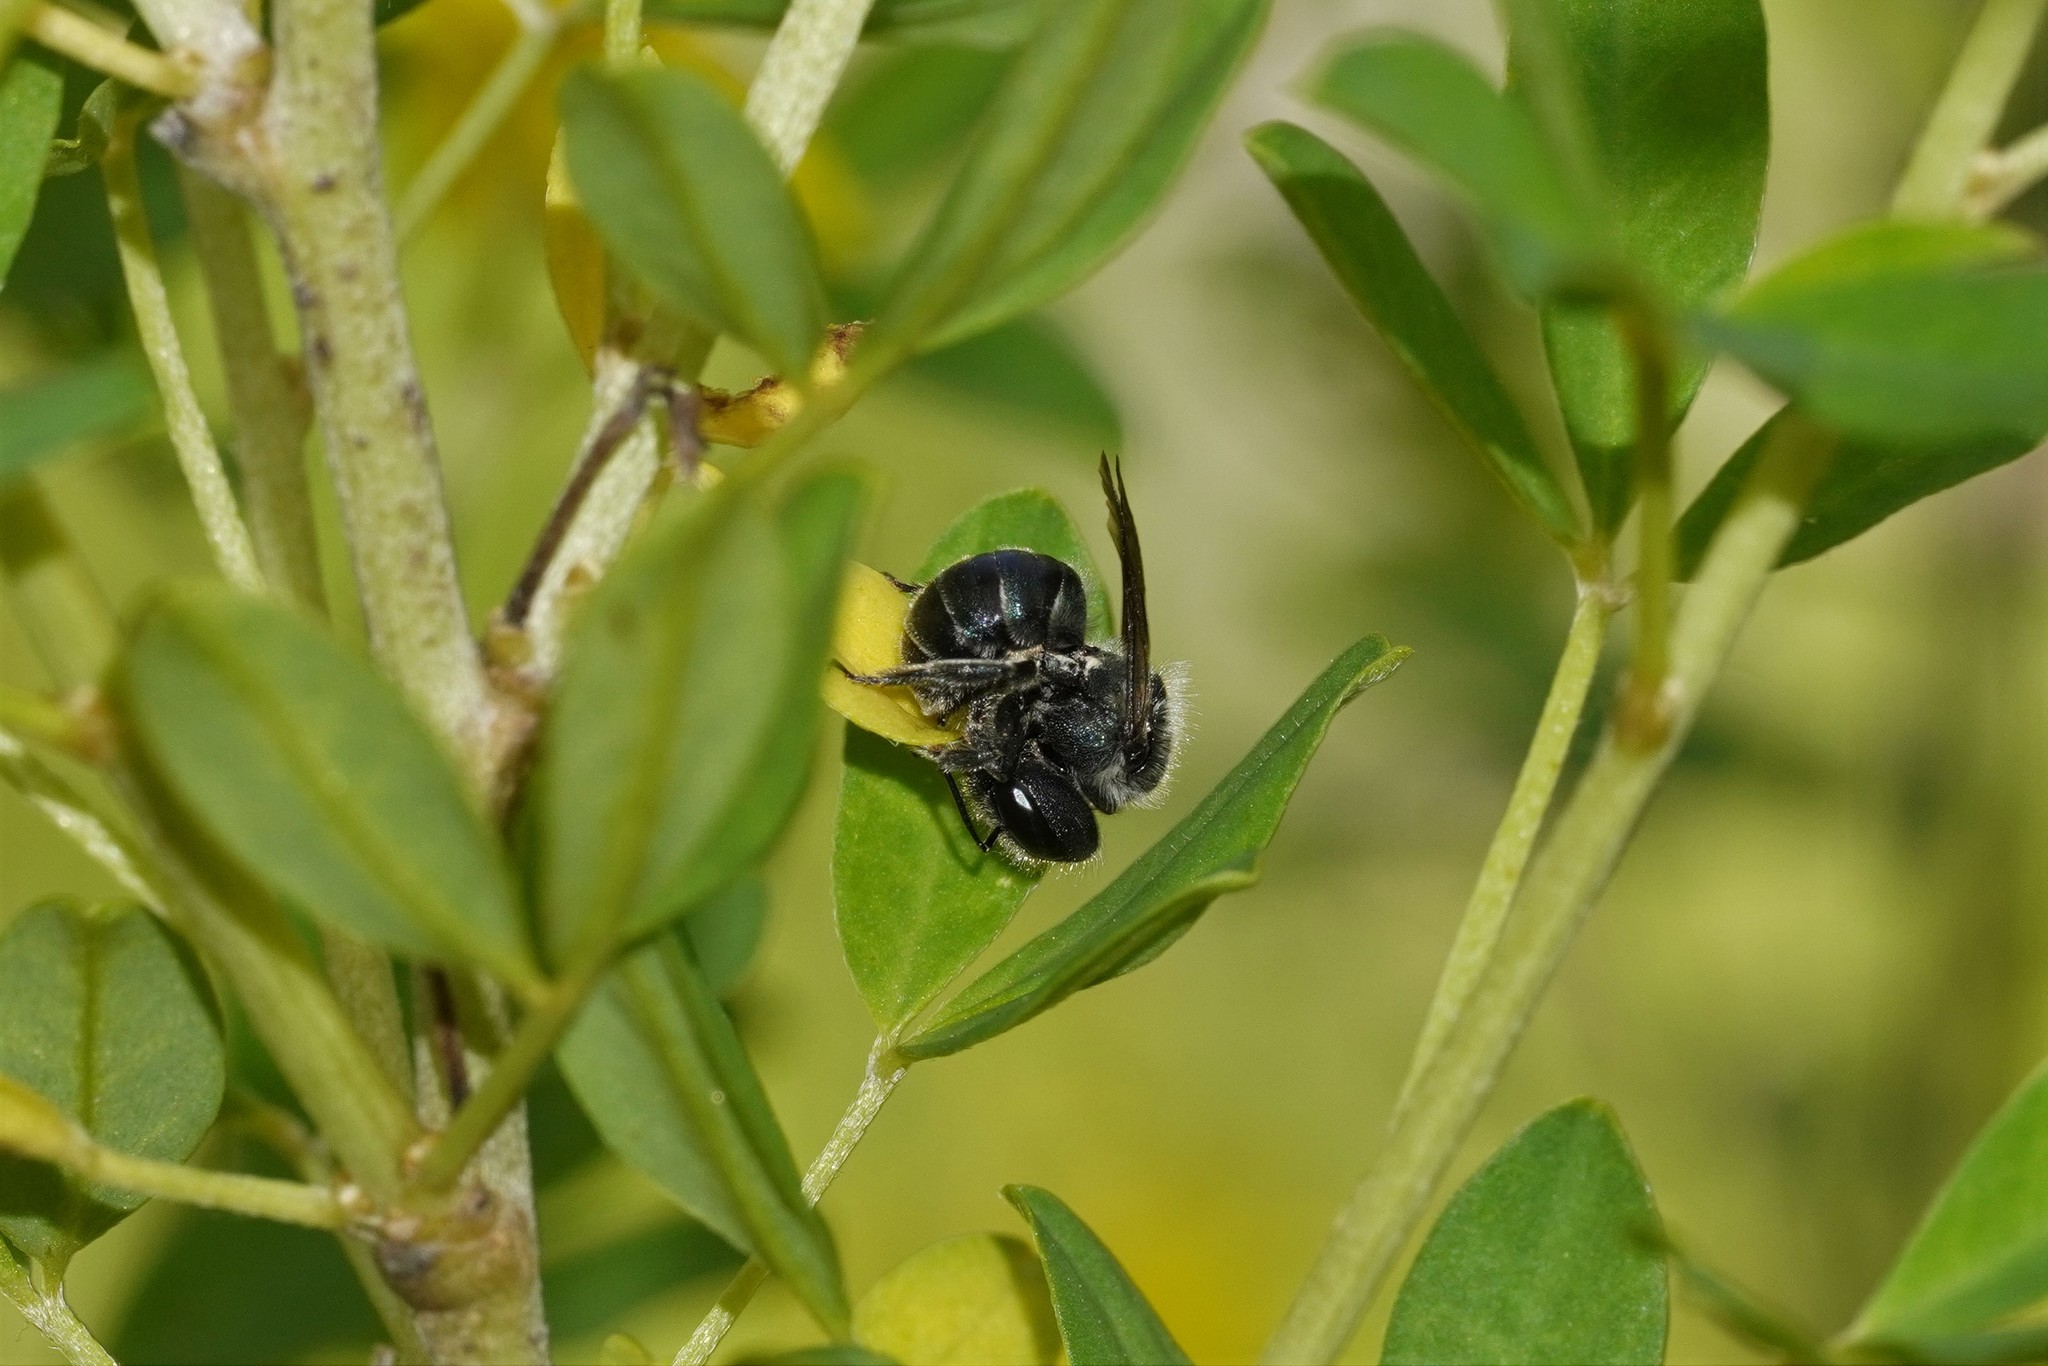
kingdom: Animalia
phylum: Arthropoda
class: Insecta
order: Hymenoptera
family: Megachilidae
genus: Osmia
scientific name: Osmia caerulescens
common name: Blue mason bee
